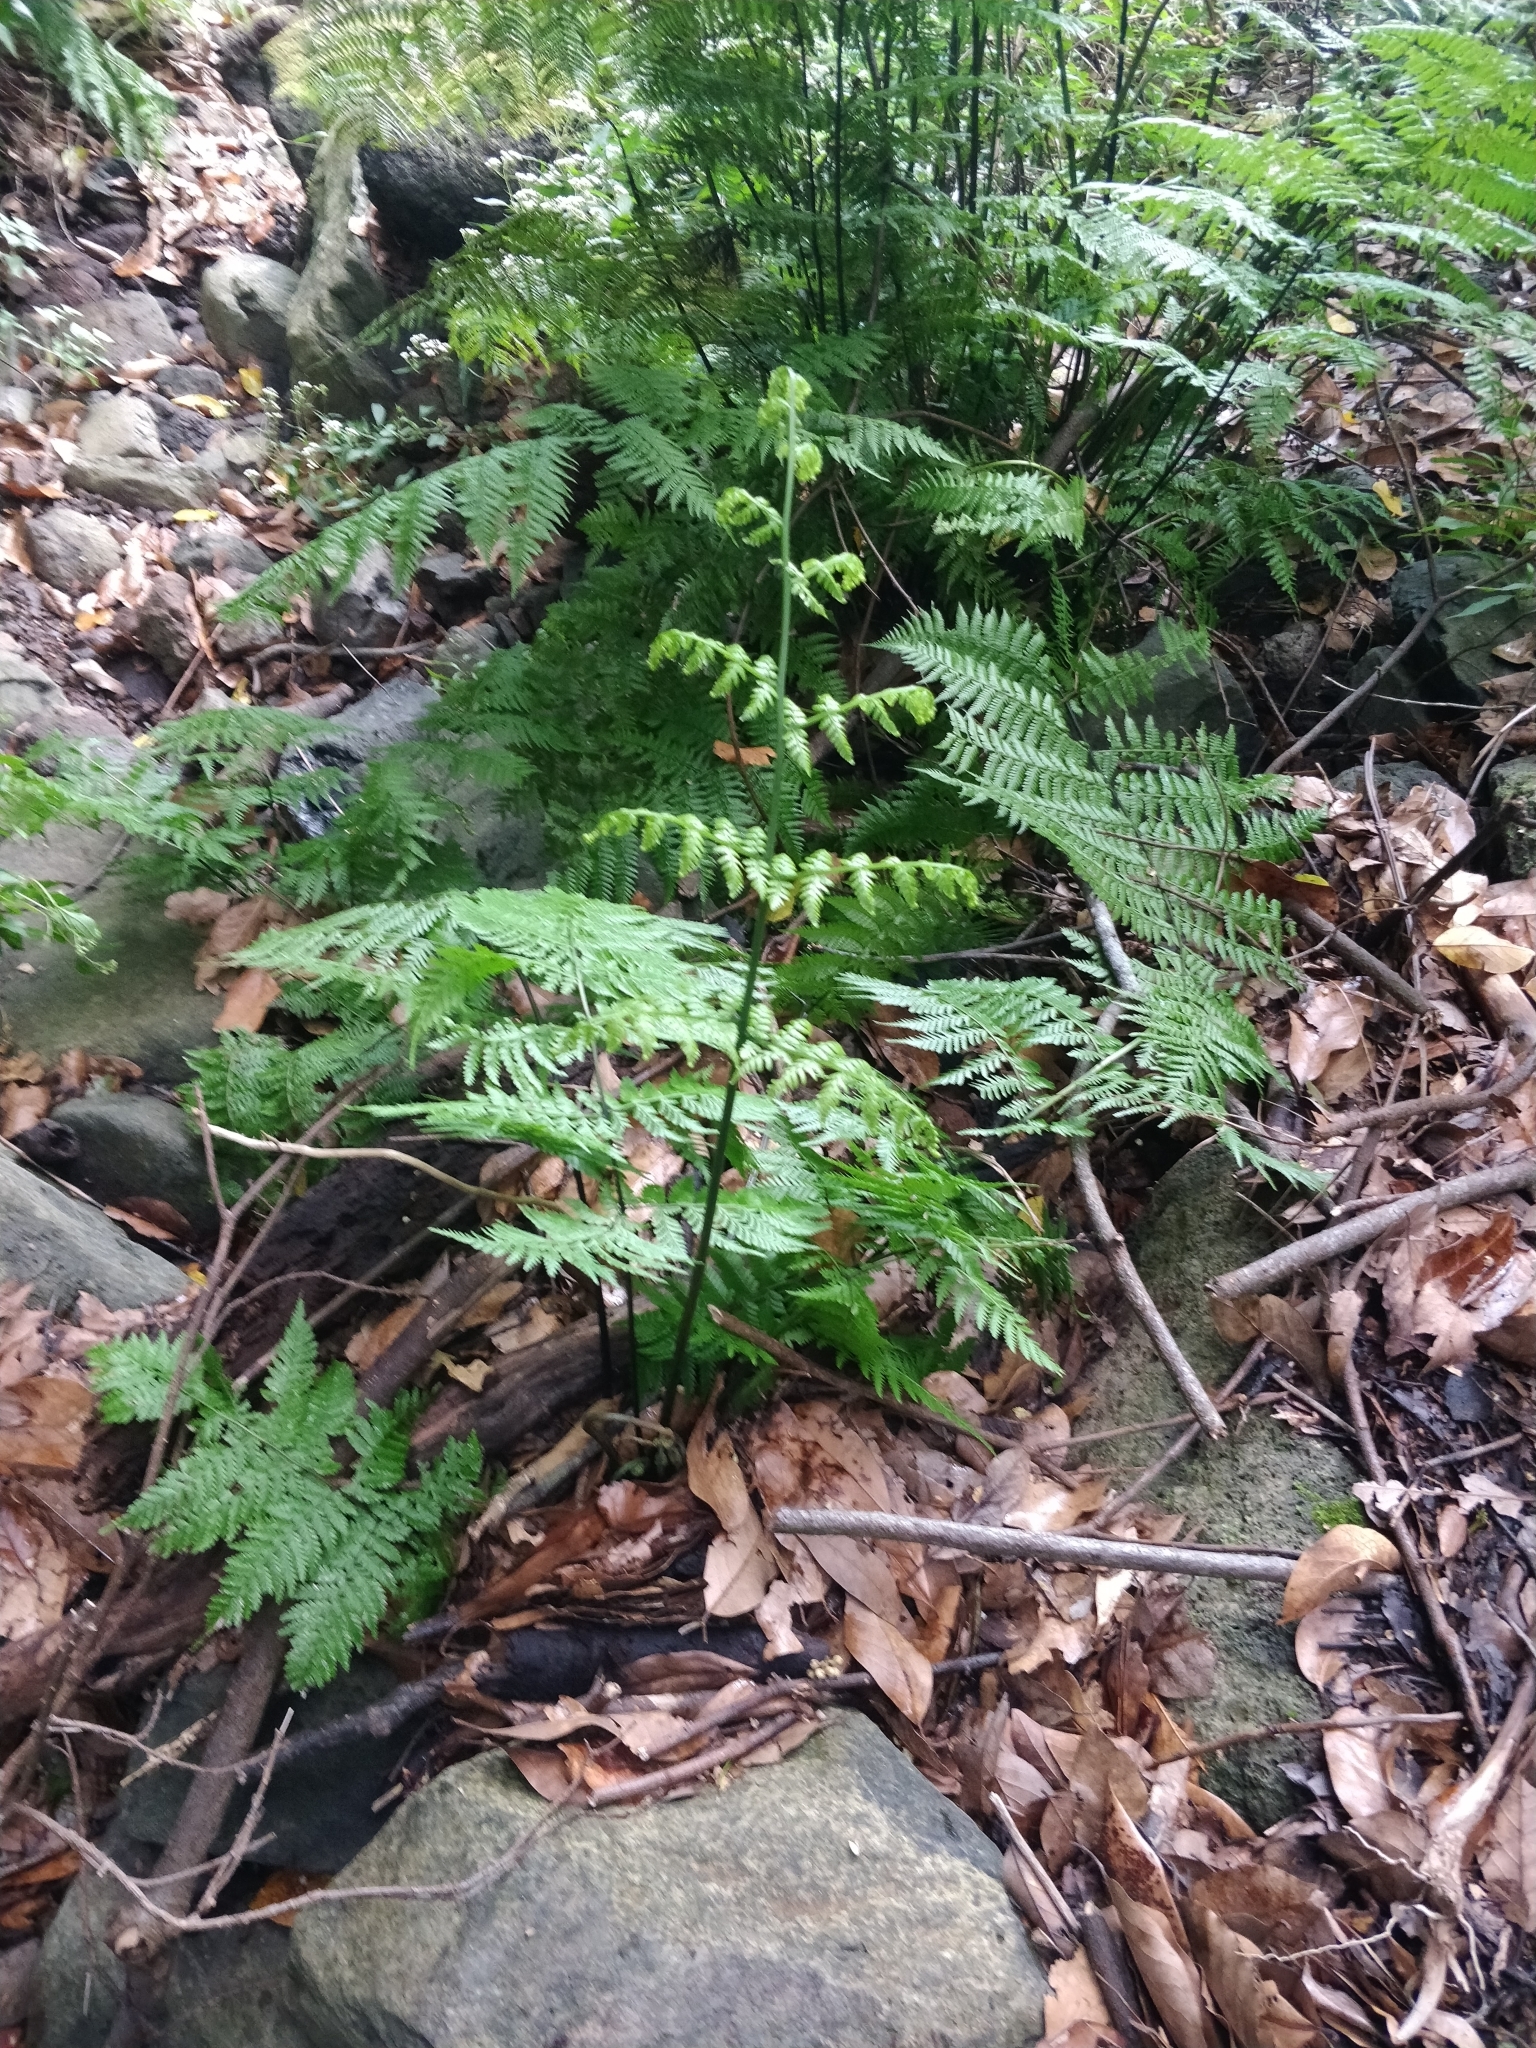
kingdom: Plantae
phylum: Tracheophyta
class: Polypodiopsida
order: Polypodiales
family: Athyriaceae
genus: Diplazium
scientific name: Diplazium caudatum
